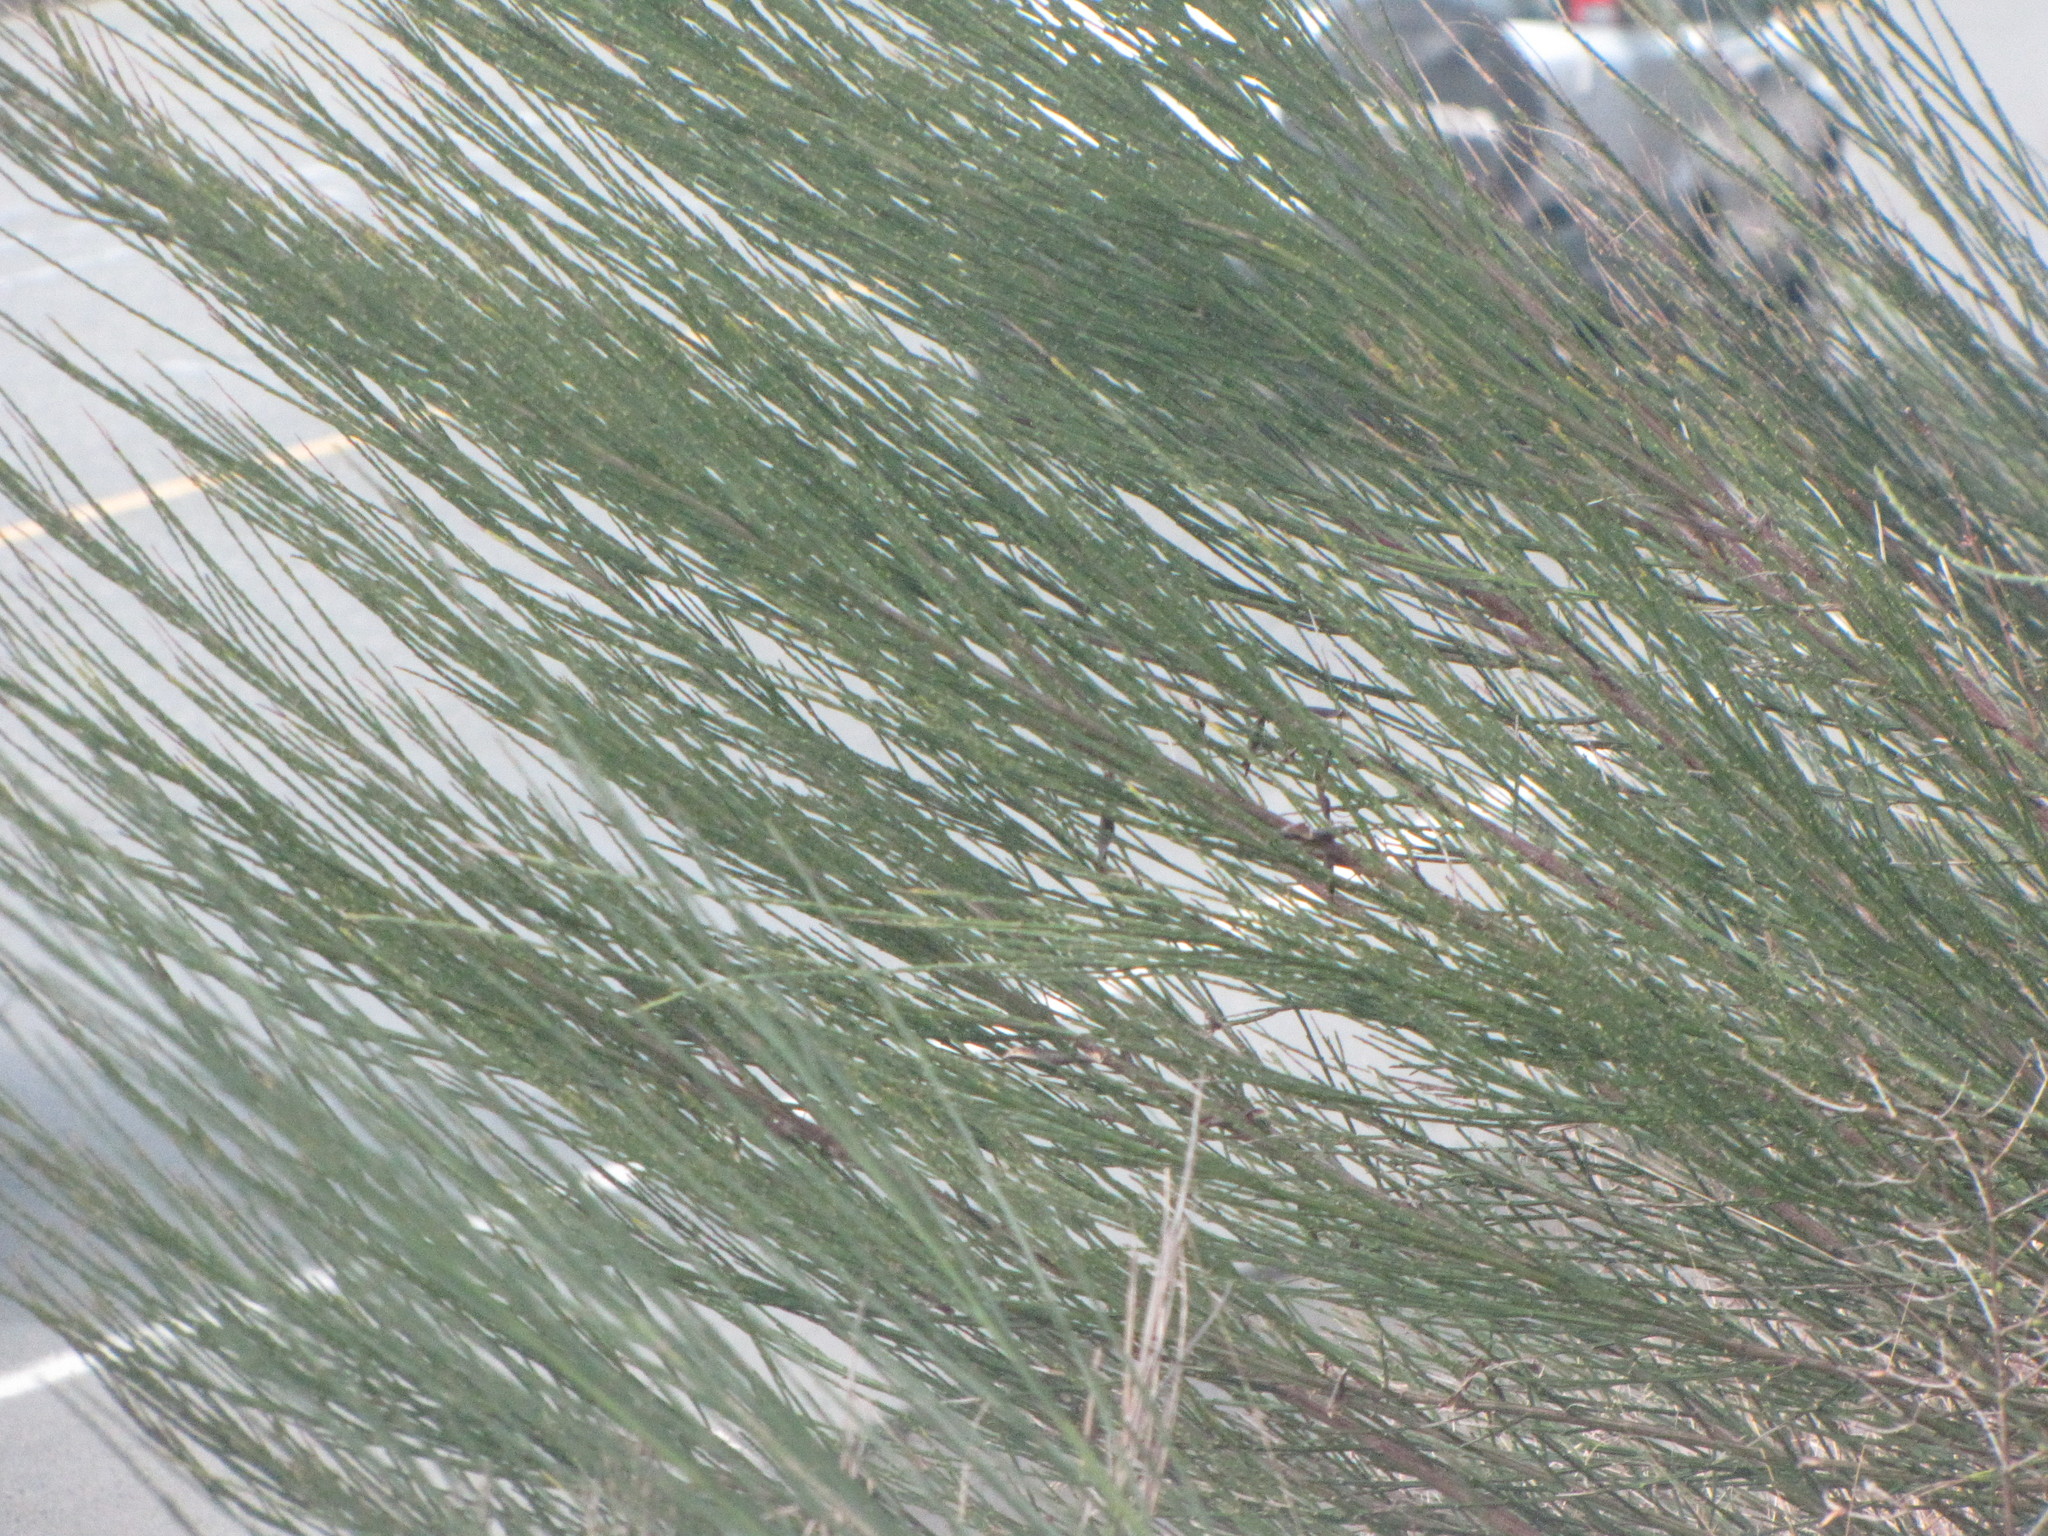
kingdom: Plantae
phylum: Tracheophyta
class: Magnoliopsida
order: Fabales
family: Fabaceae
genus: Cytisus
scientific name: Cytisus scoparius
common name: Scotch broom
